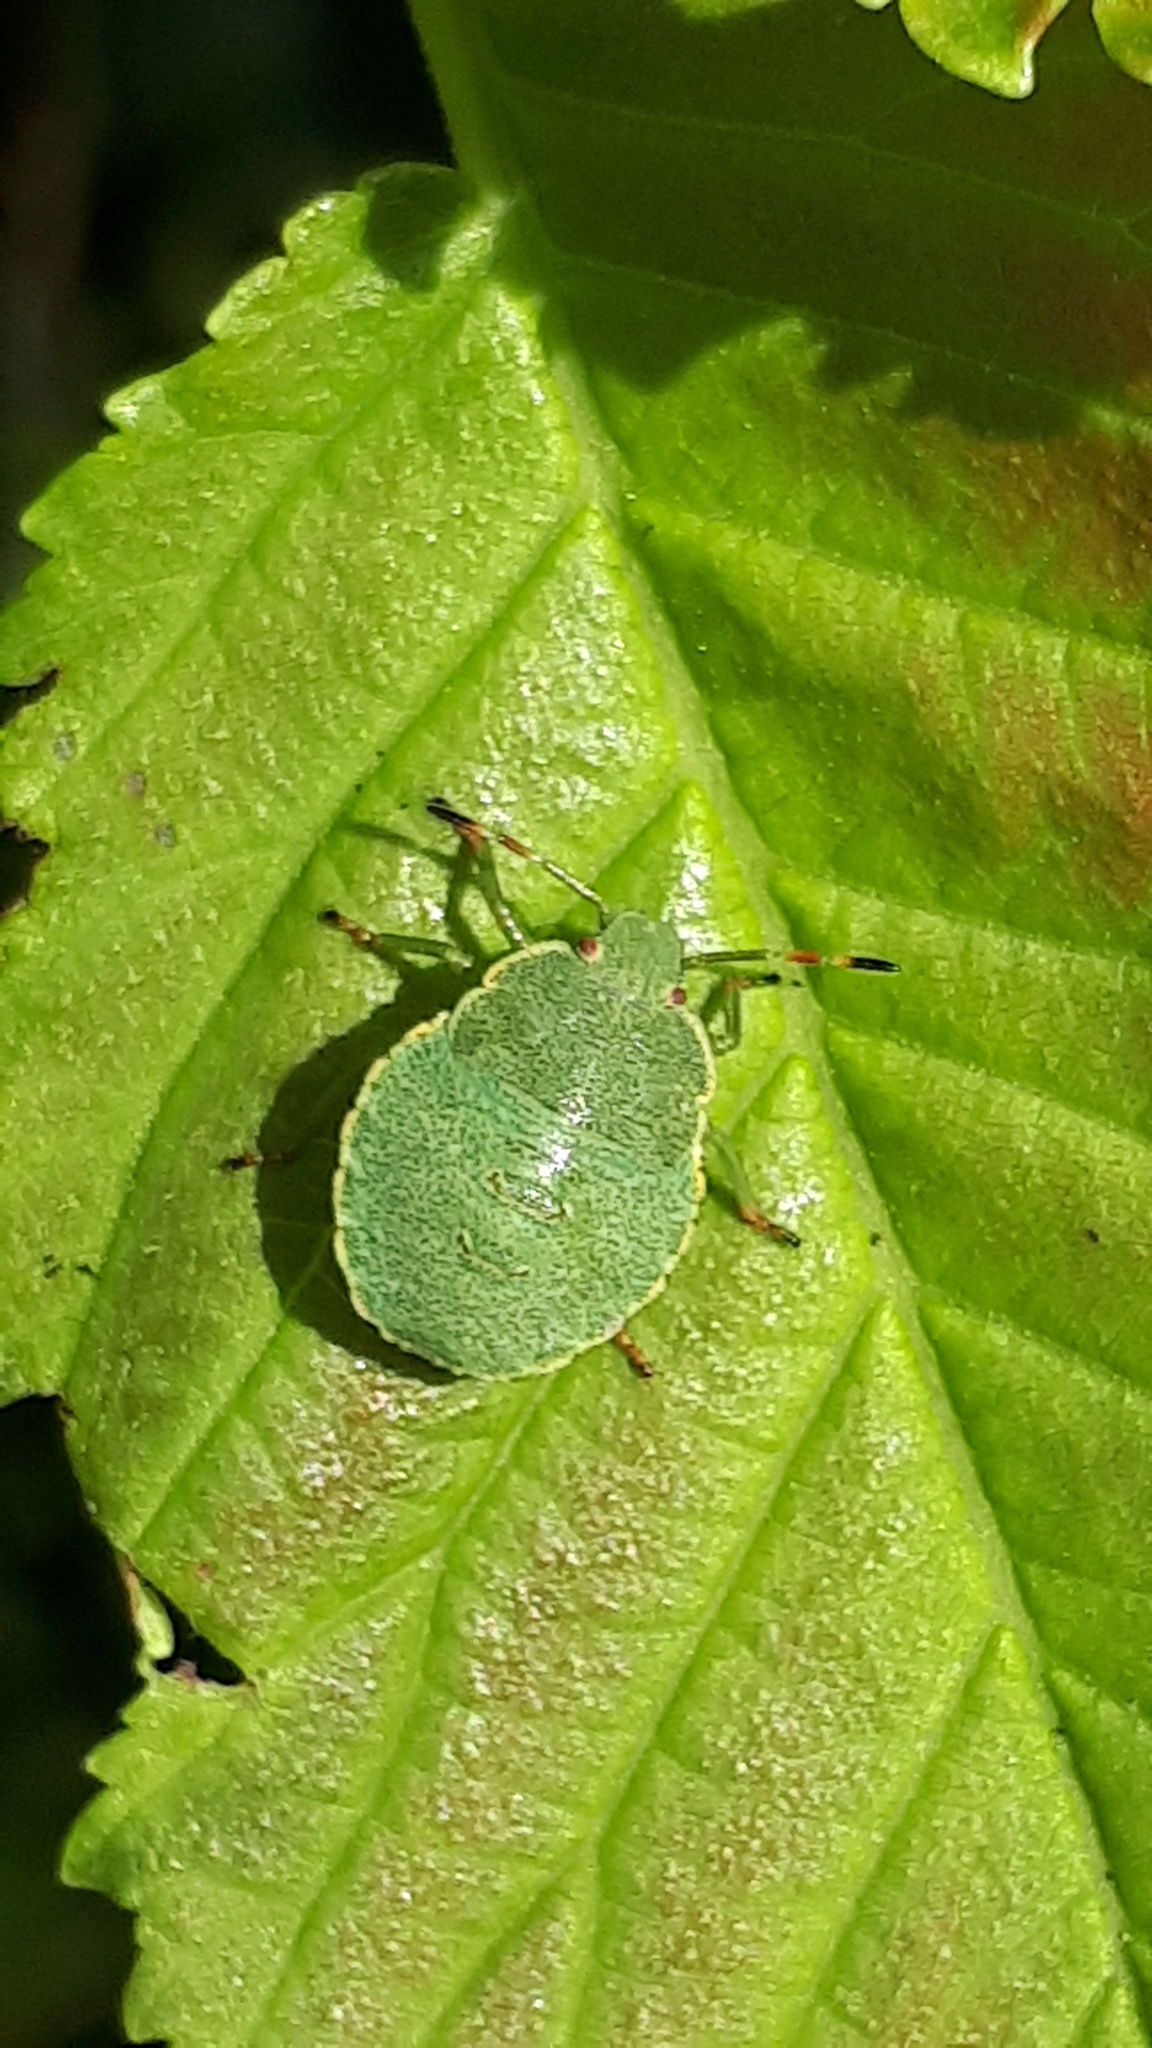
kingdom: Animalia
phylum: Arthropoda
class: Insecta
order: Hemiptera
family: Pentatomidae
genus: Palomena
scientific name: Palomena prasina
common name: Green shieldbug
